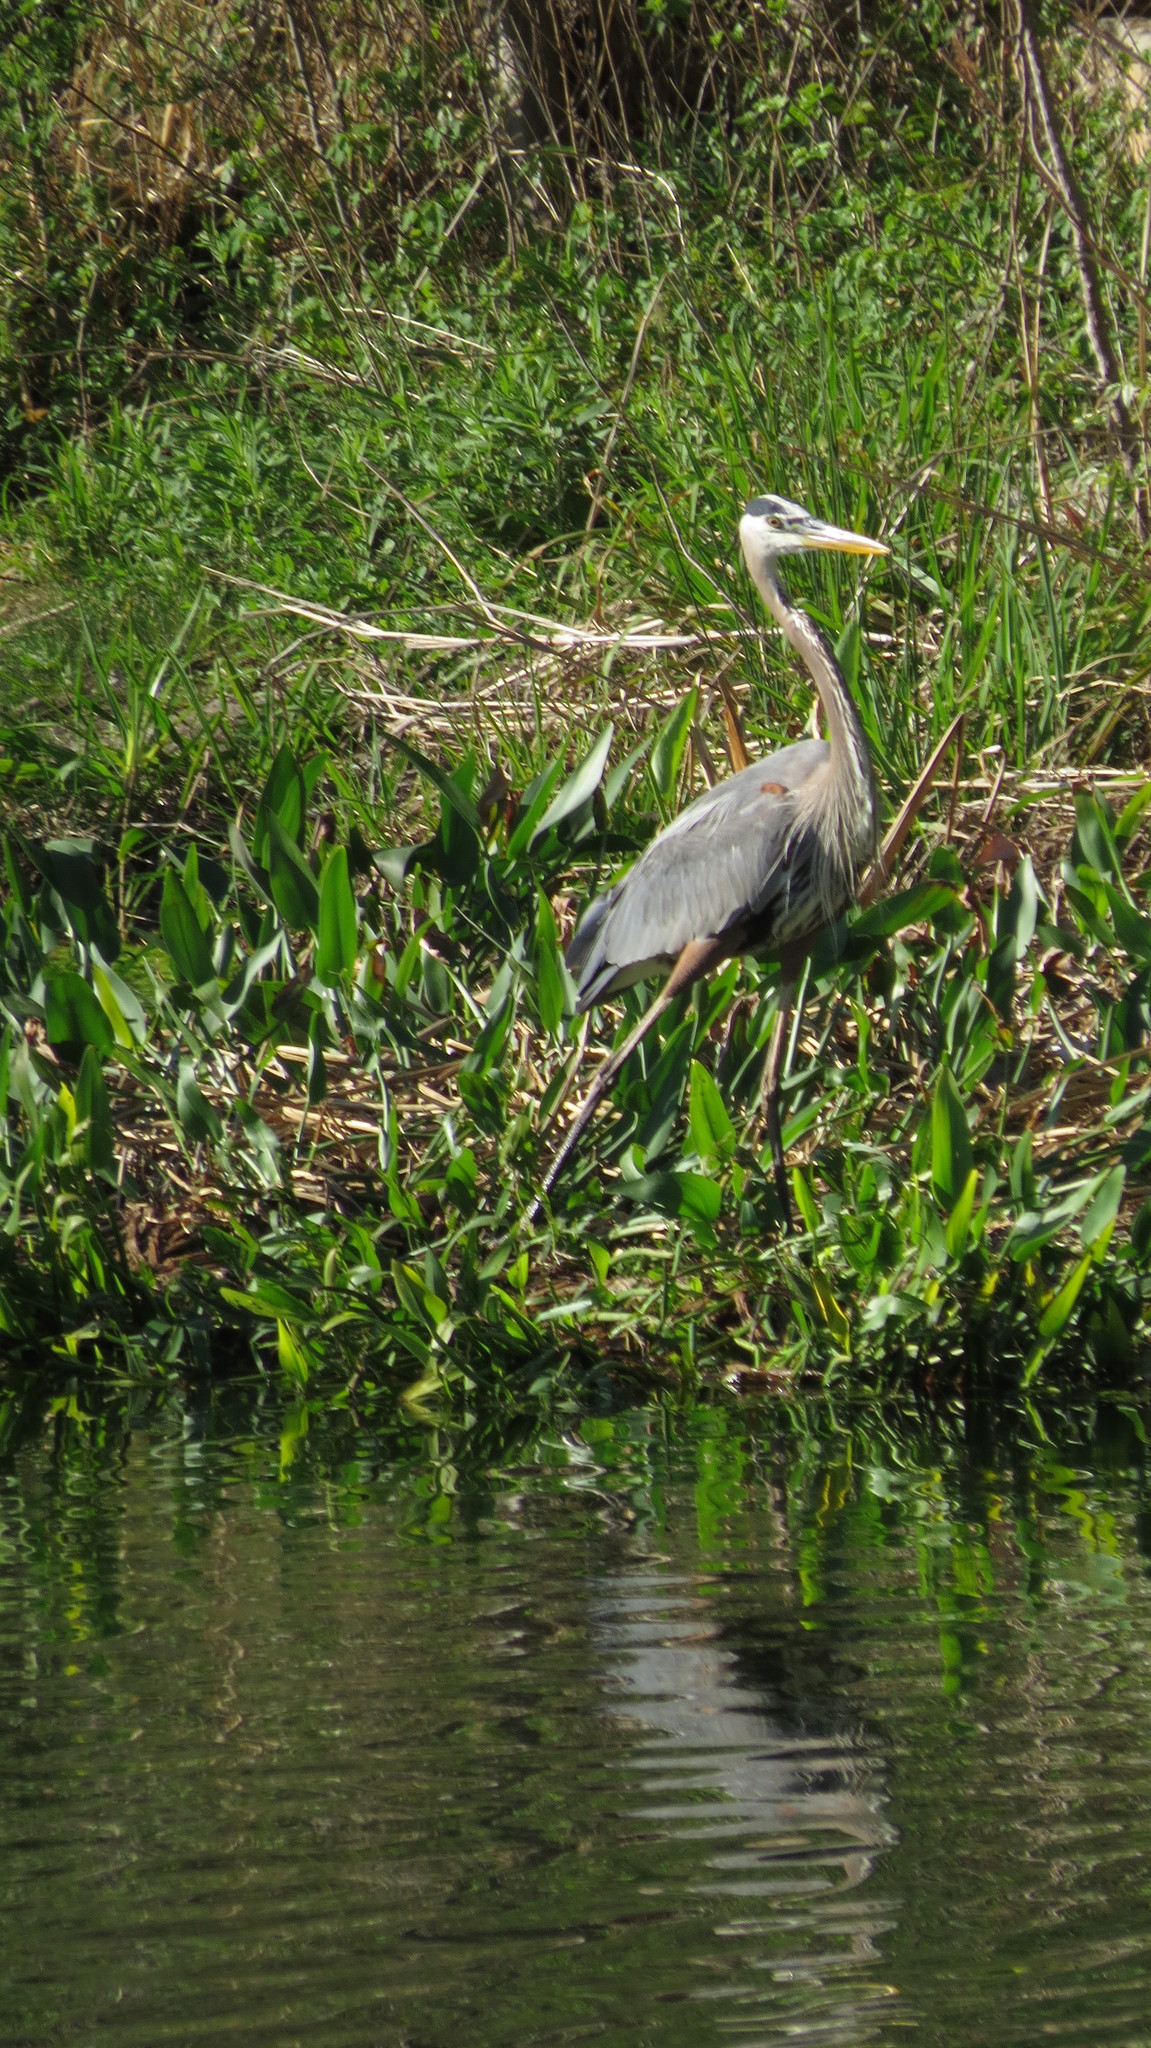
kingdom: Animalia
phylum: Chordata
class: Aves
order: Pelecaniformes
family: Ardeidae
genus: Ardea
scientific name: Ardea herodias
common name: Great blue heron
